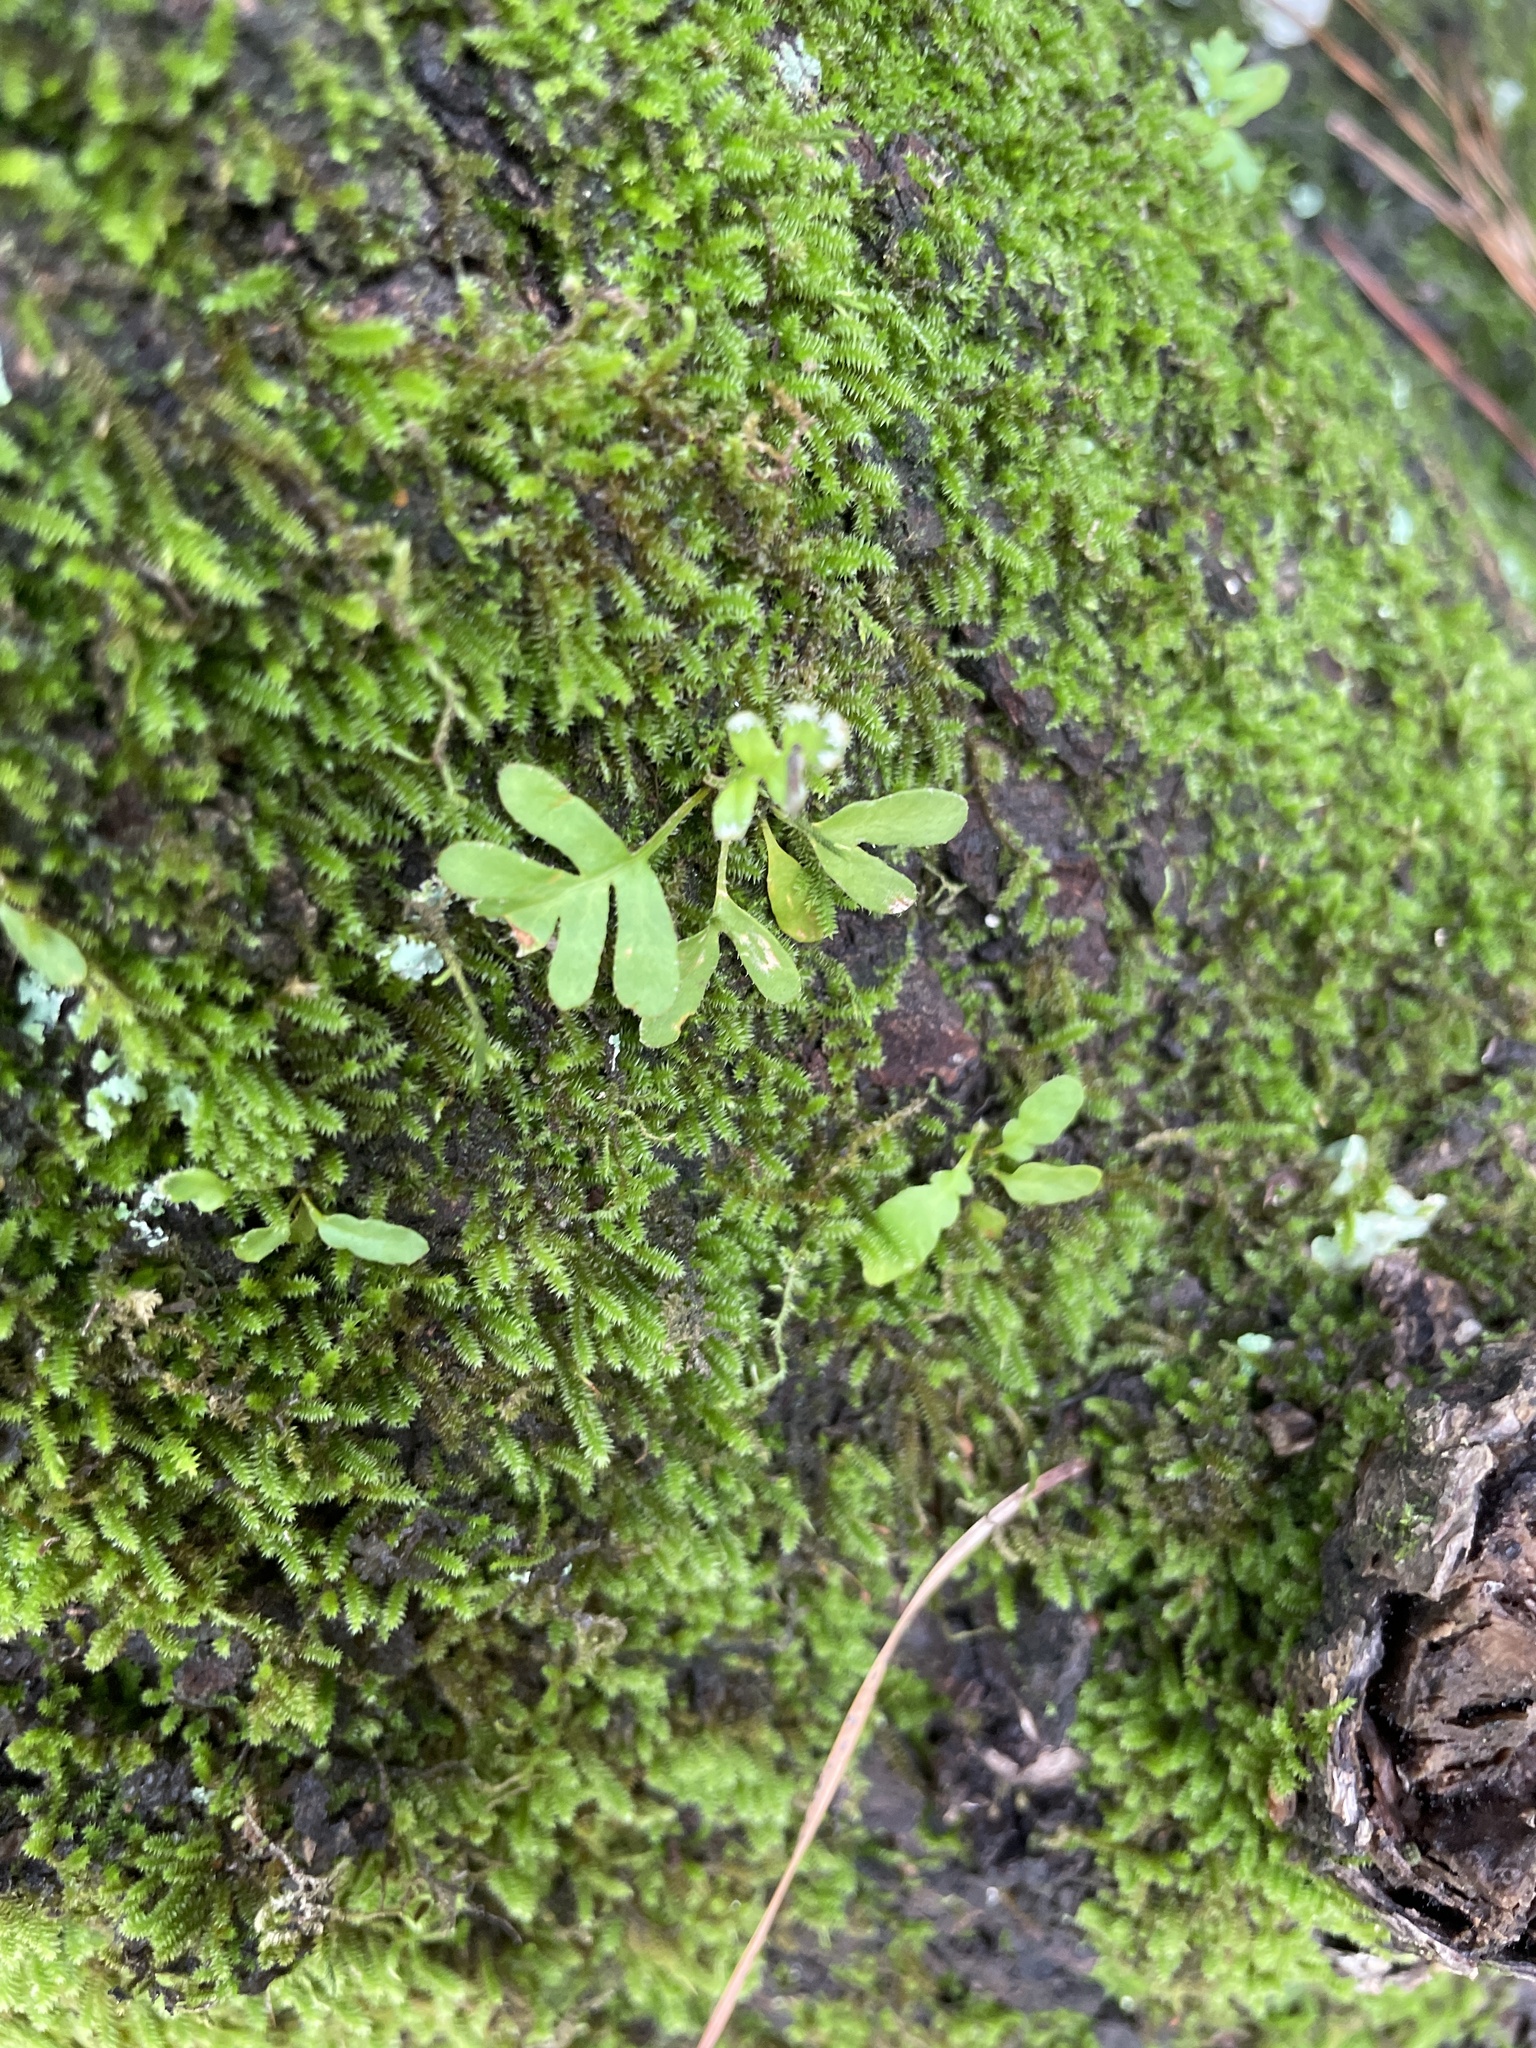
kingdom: Plantae
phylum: Tracheophyta
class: Polypodiopsida
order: Polypodiales
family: Polypodiaceae
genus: Pleopeltis
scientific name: Pleopeltis michauxiana
